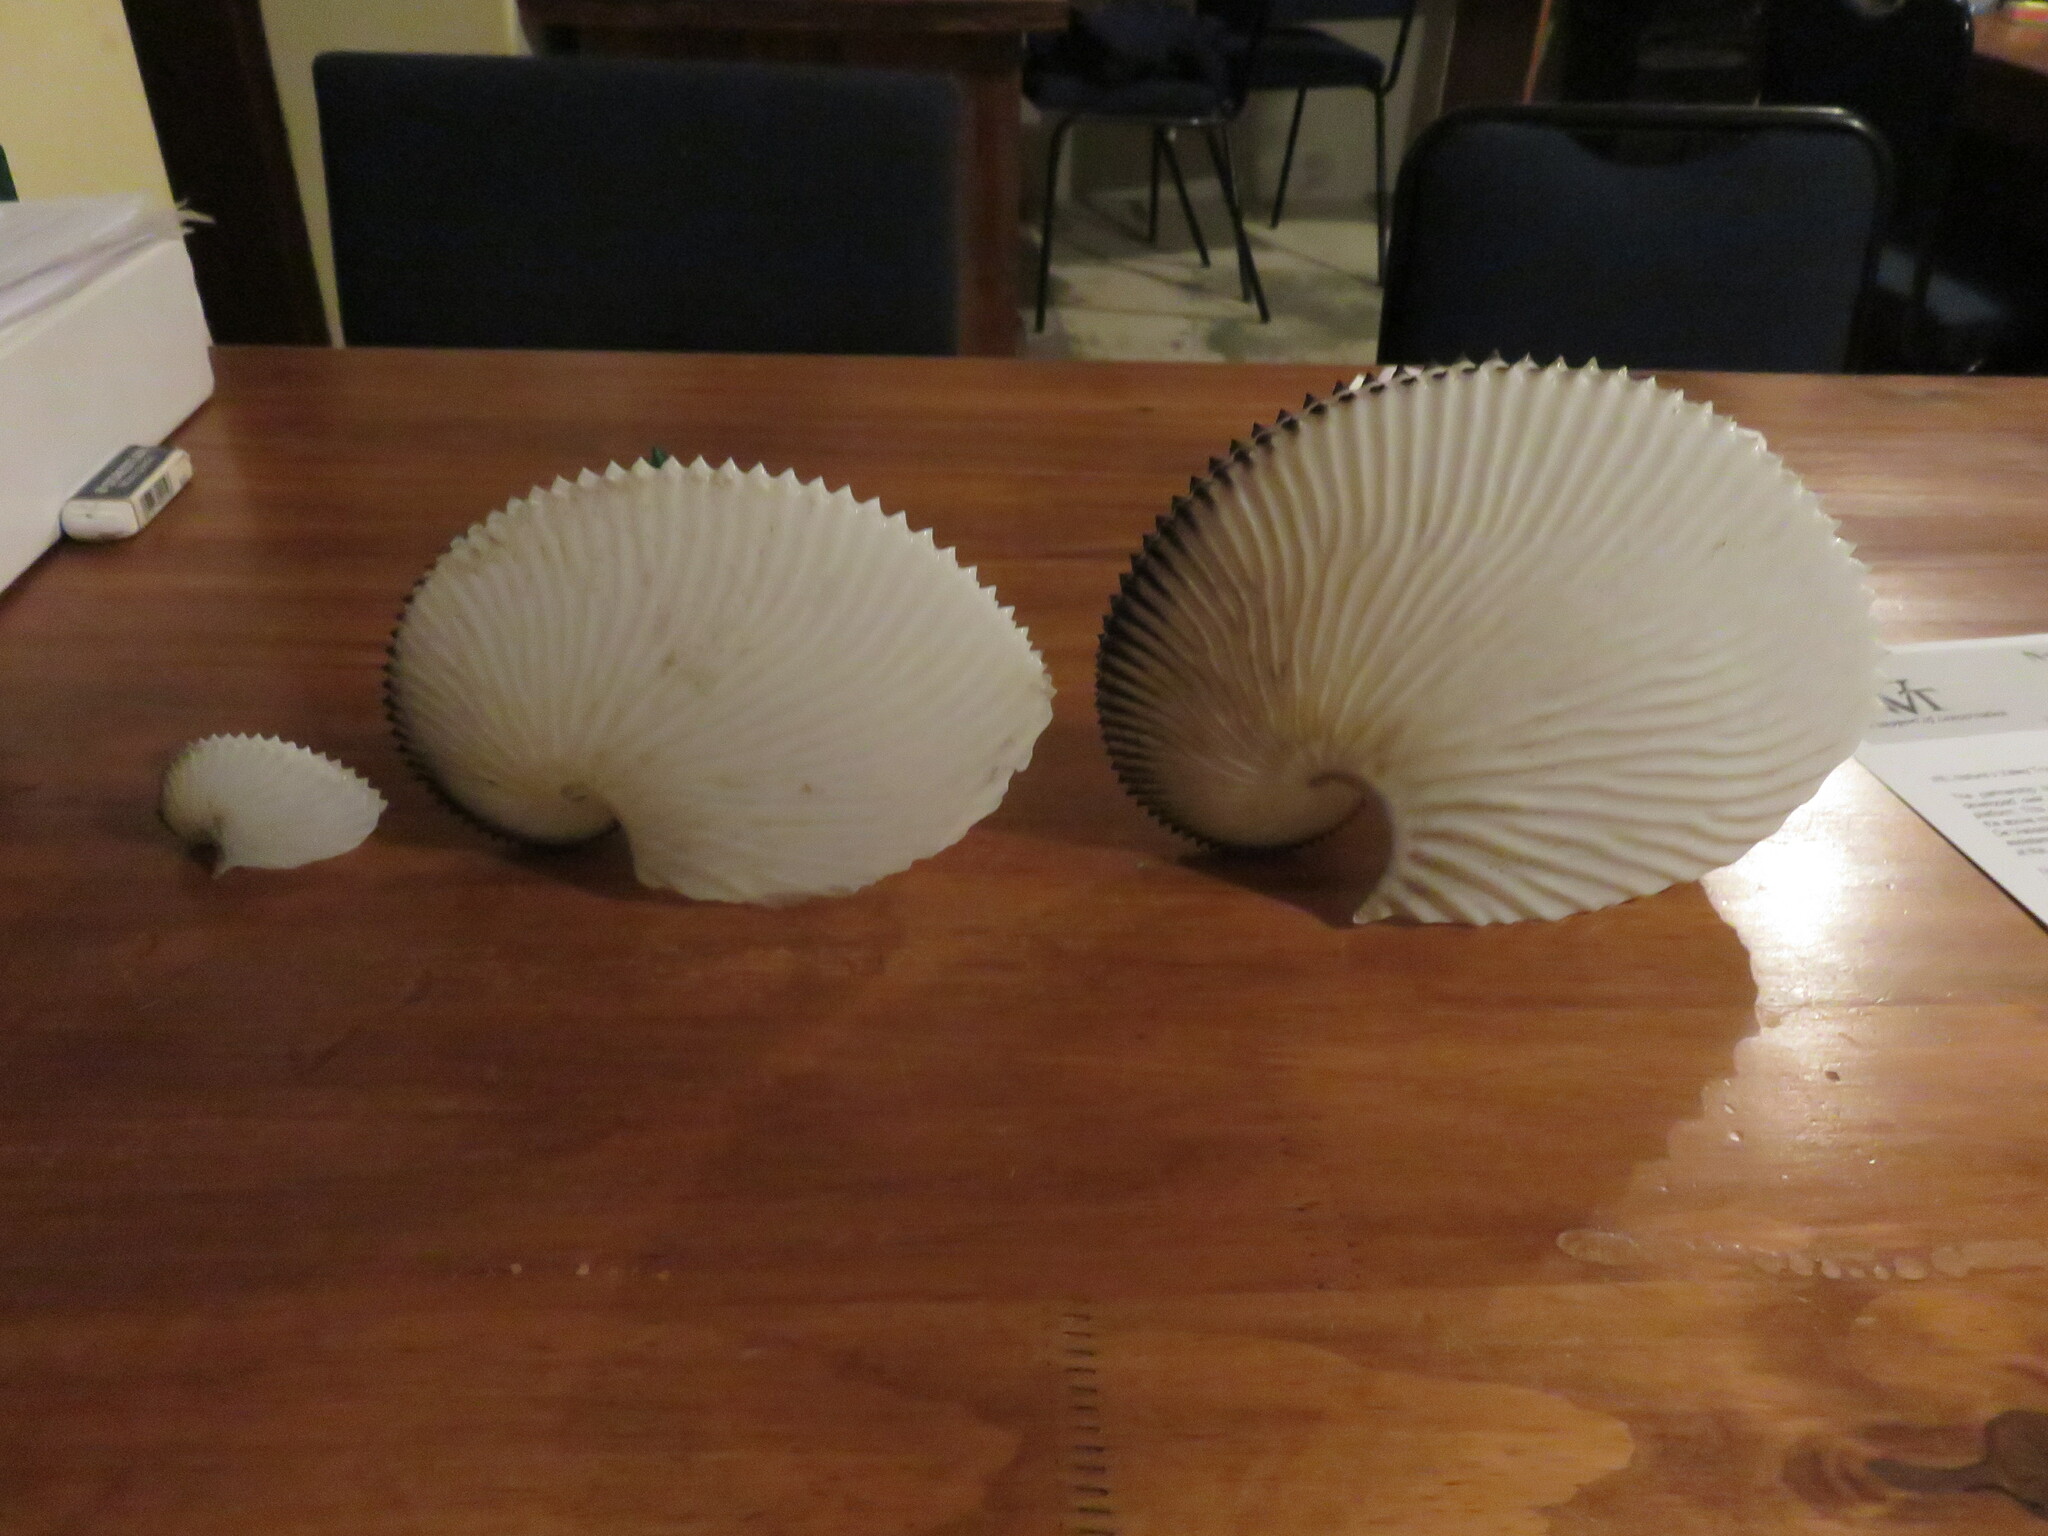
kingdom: Animalia
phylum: Mollusca
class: Cephalopoda
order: Octopoda
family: Argonautidae
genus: Argonauta
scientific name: Argonauta argo
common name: Common paper nautilus
